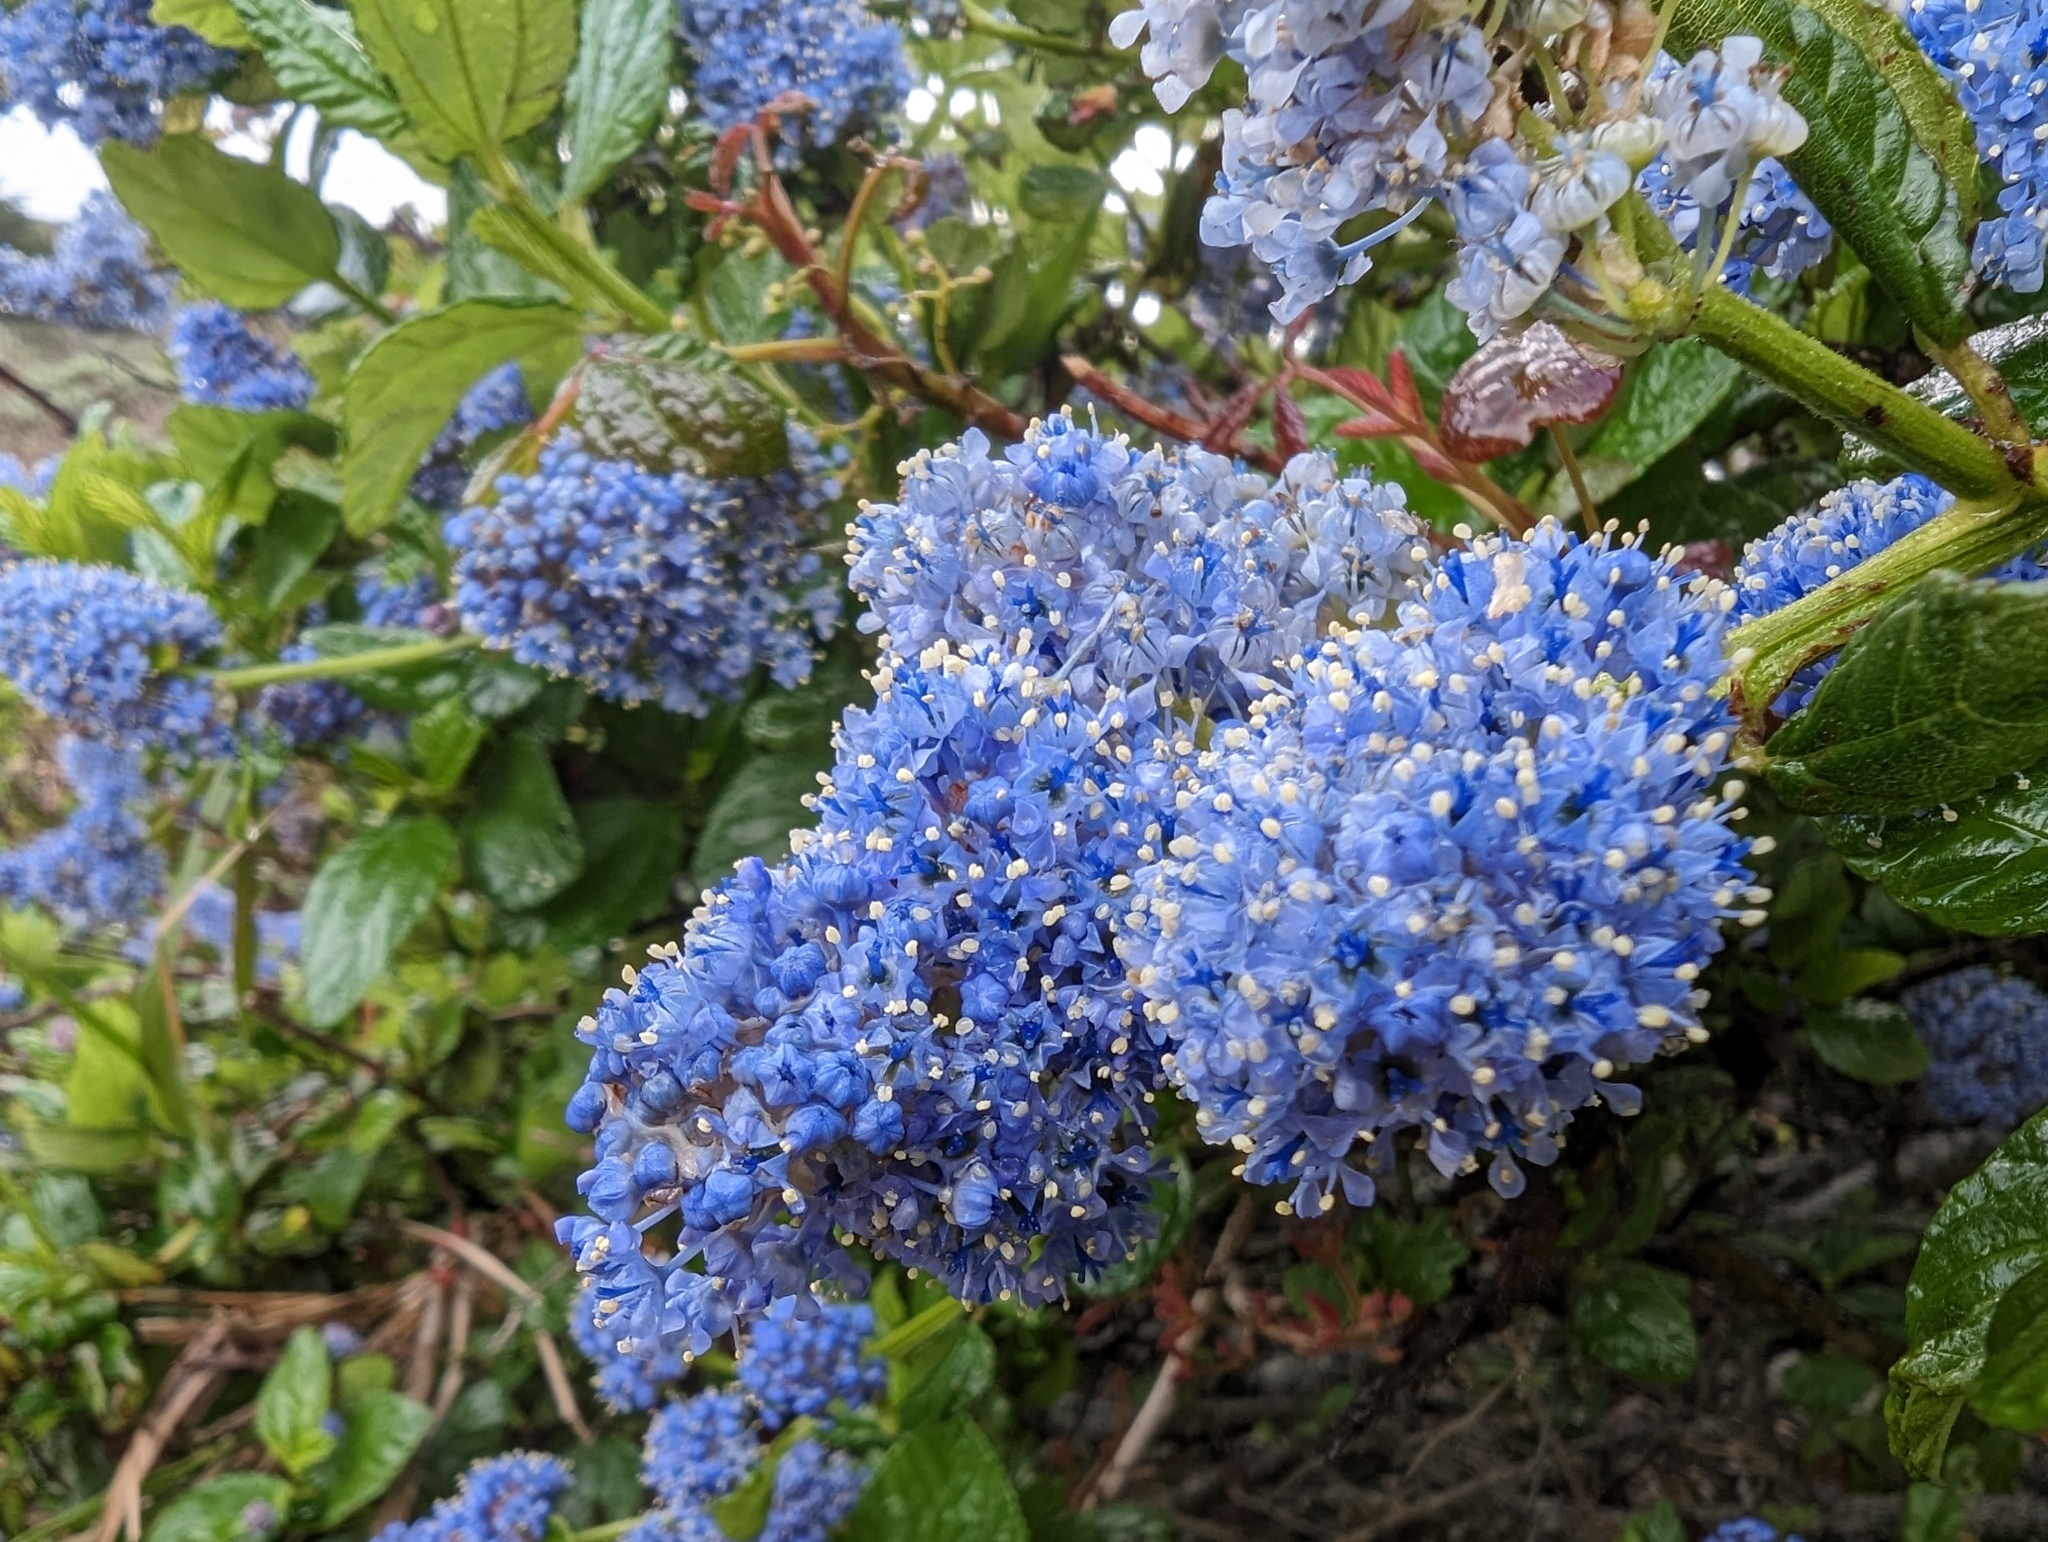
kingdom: Plantae
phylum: Tracheophyta
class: Magnoliopsida
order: Rosales
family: Rhamnaceae
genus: Ceanothus
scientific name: Ceanothus thyrsiflorus
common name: California-lilac
